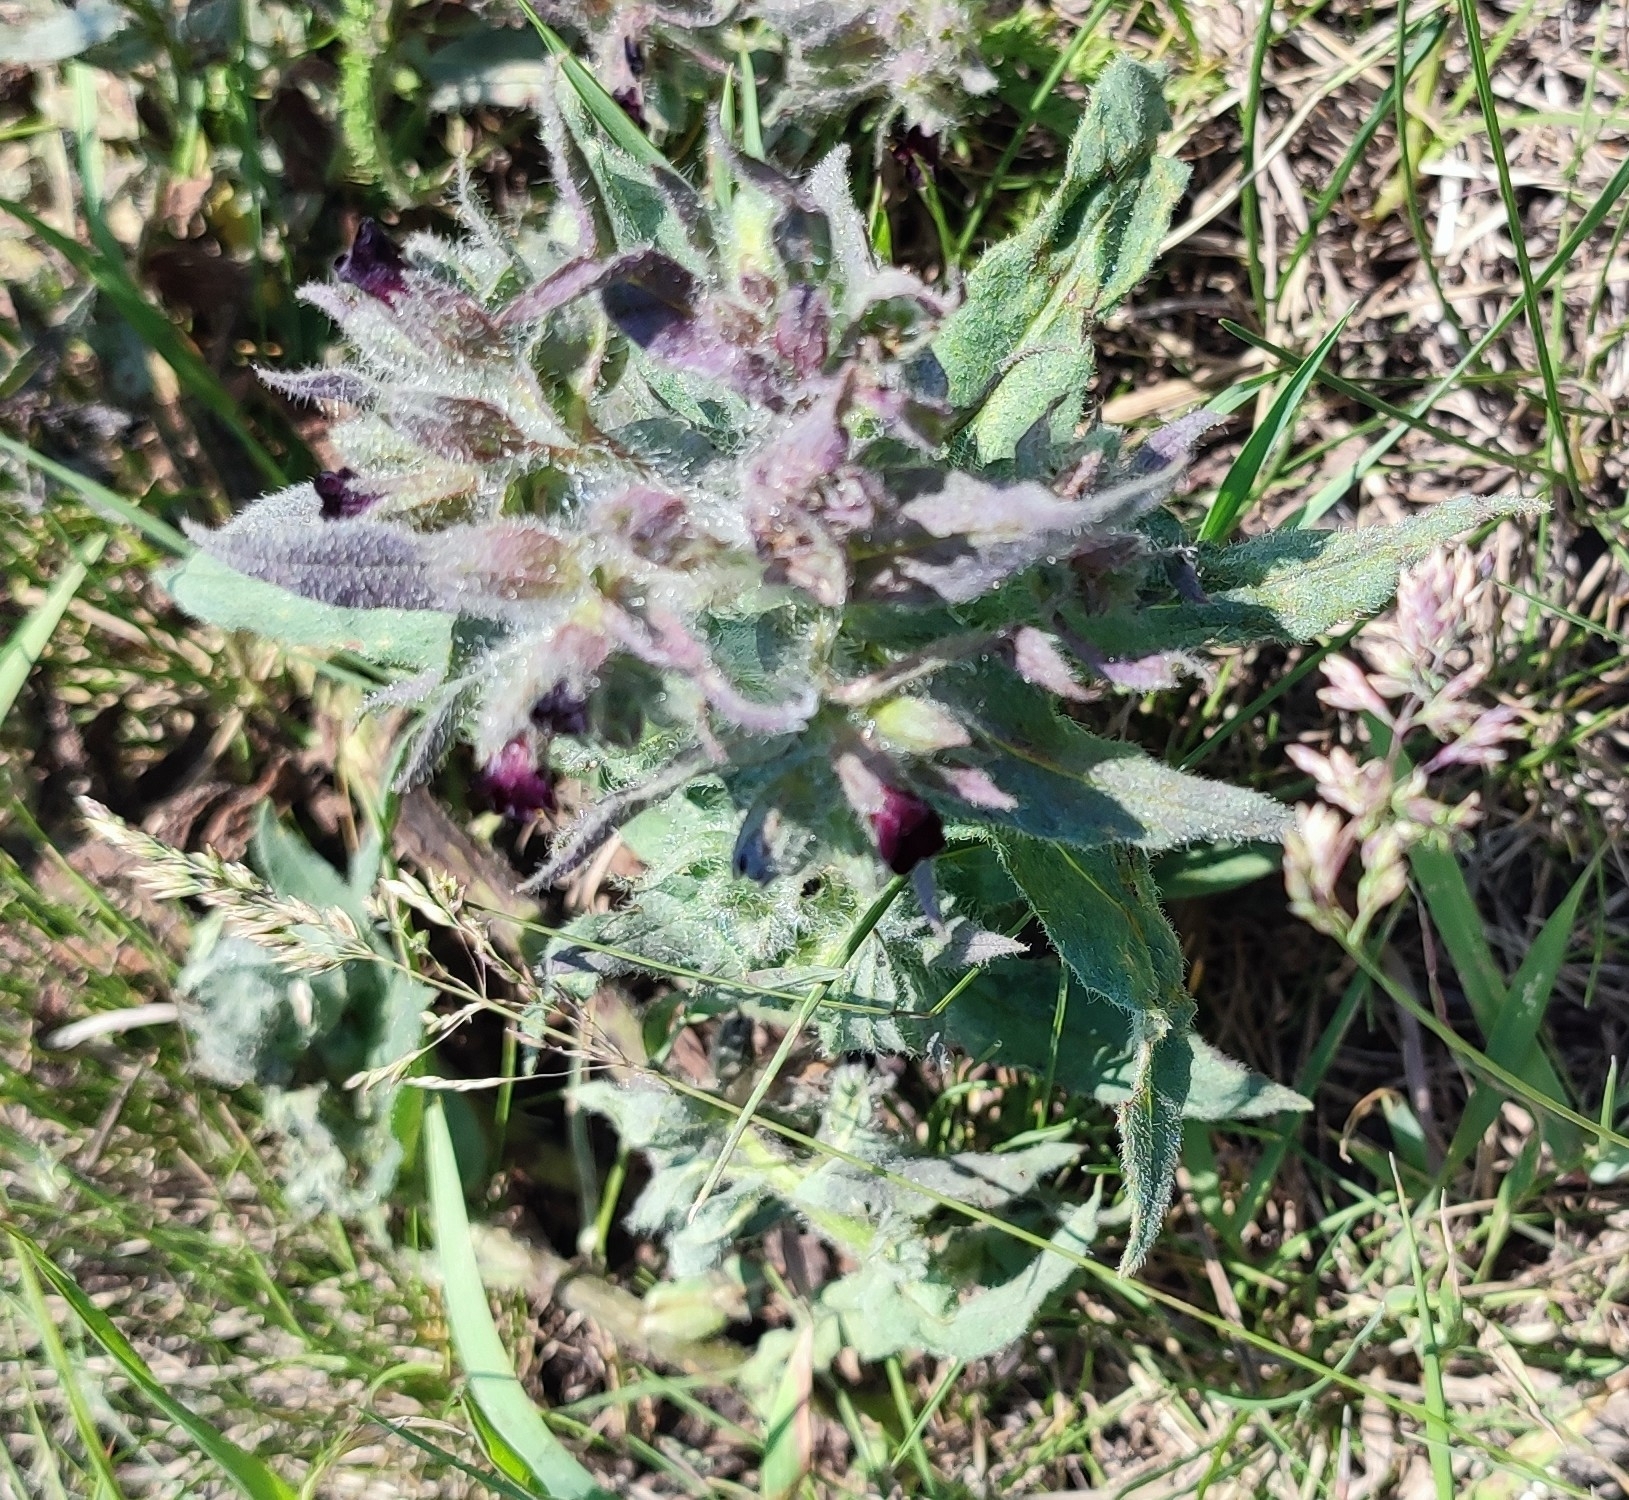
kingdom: Plantae
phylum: Tracheophyta
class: Magnoliopsida
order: Boraginales
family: Boraginaceae
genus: Nonea
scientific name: Nonea pulla
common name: Brown nonea
